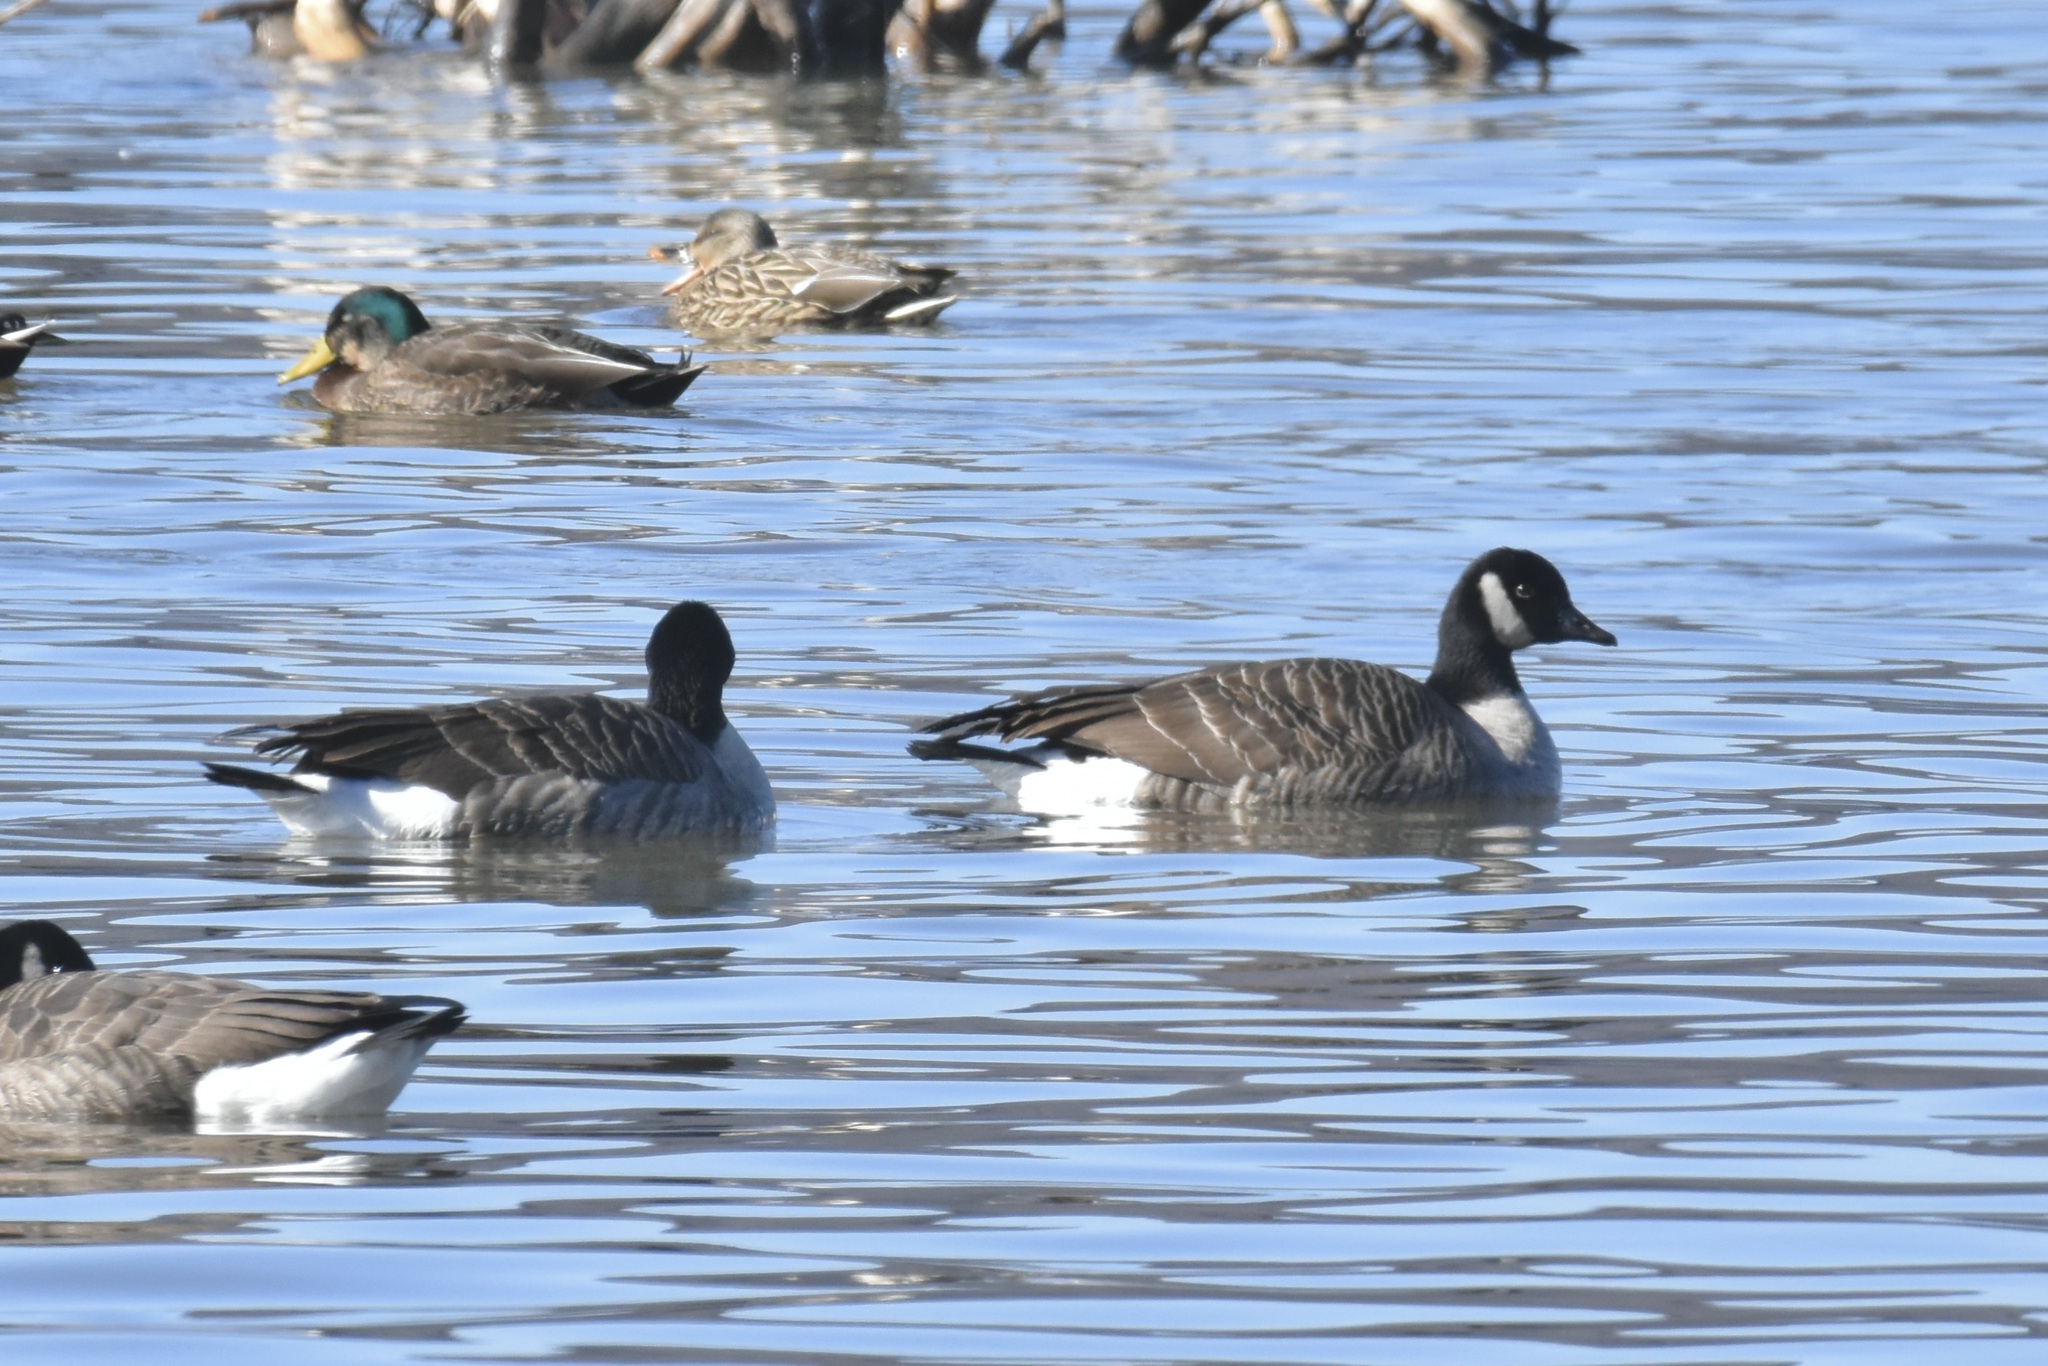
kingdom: Animalia
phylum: Chordata
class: Aves
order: Anseriformes
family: Anatidae
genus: Branta
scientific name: Branta hutchinsii
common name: Cackling goose
